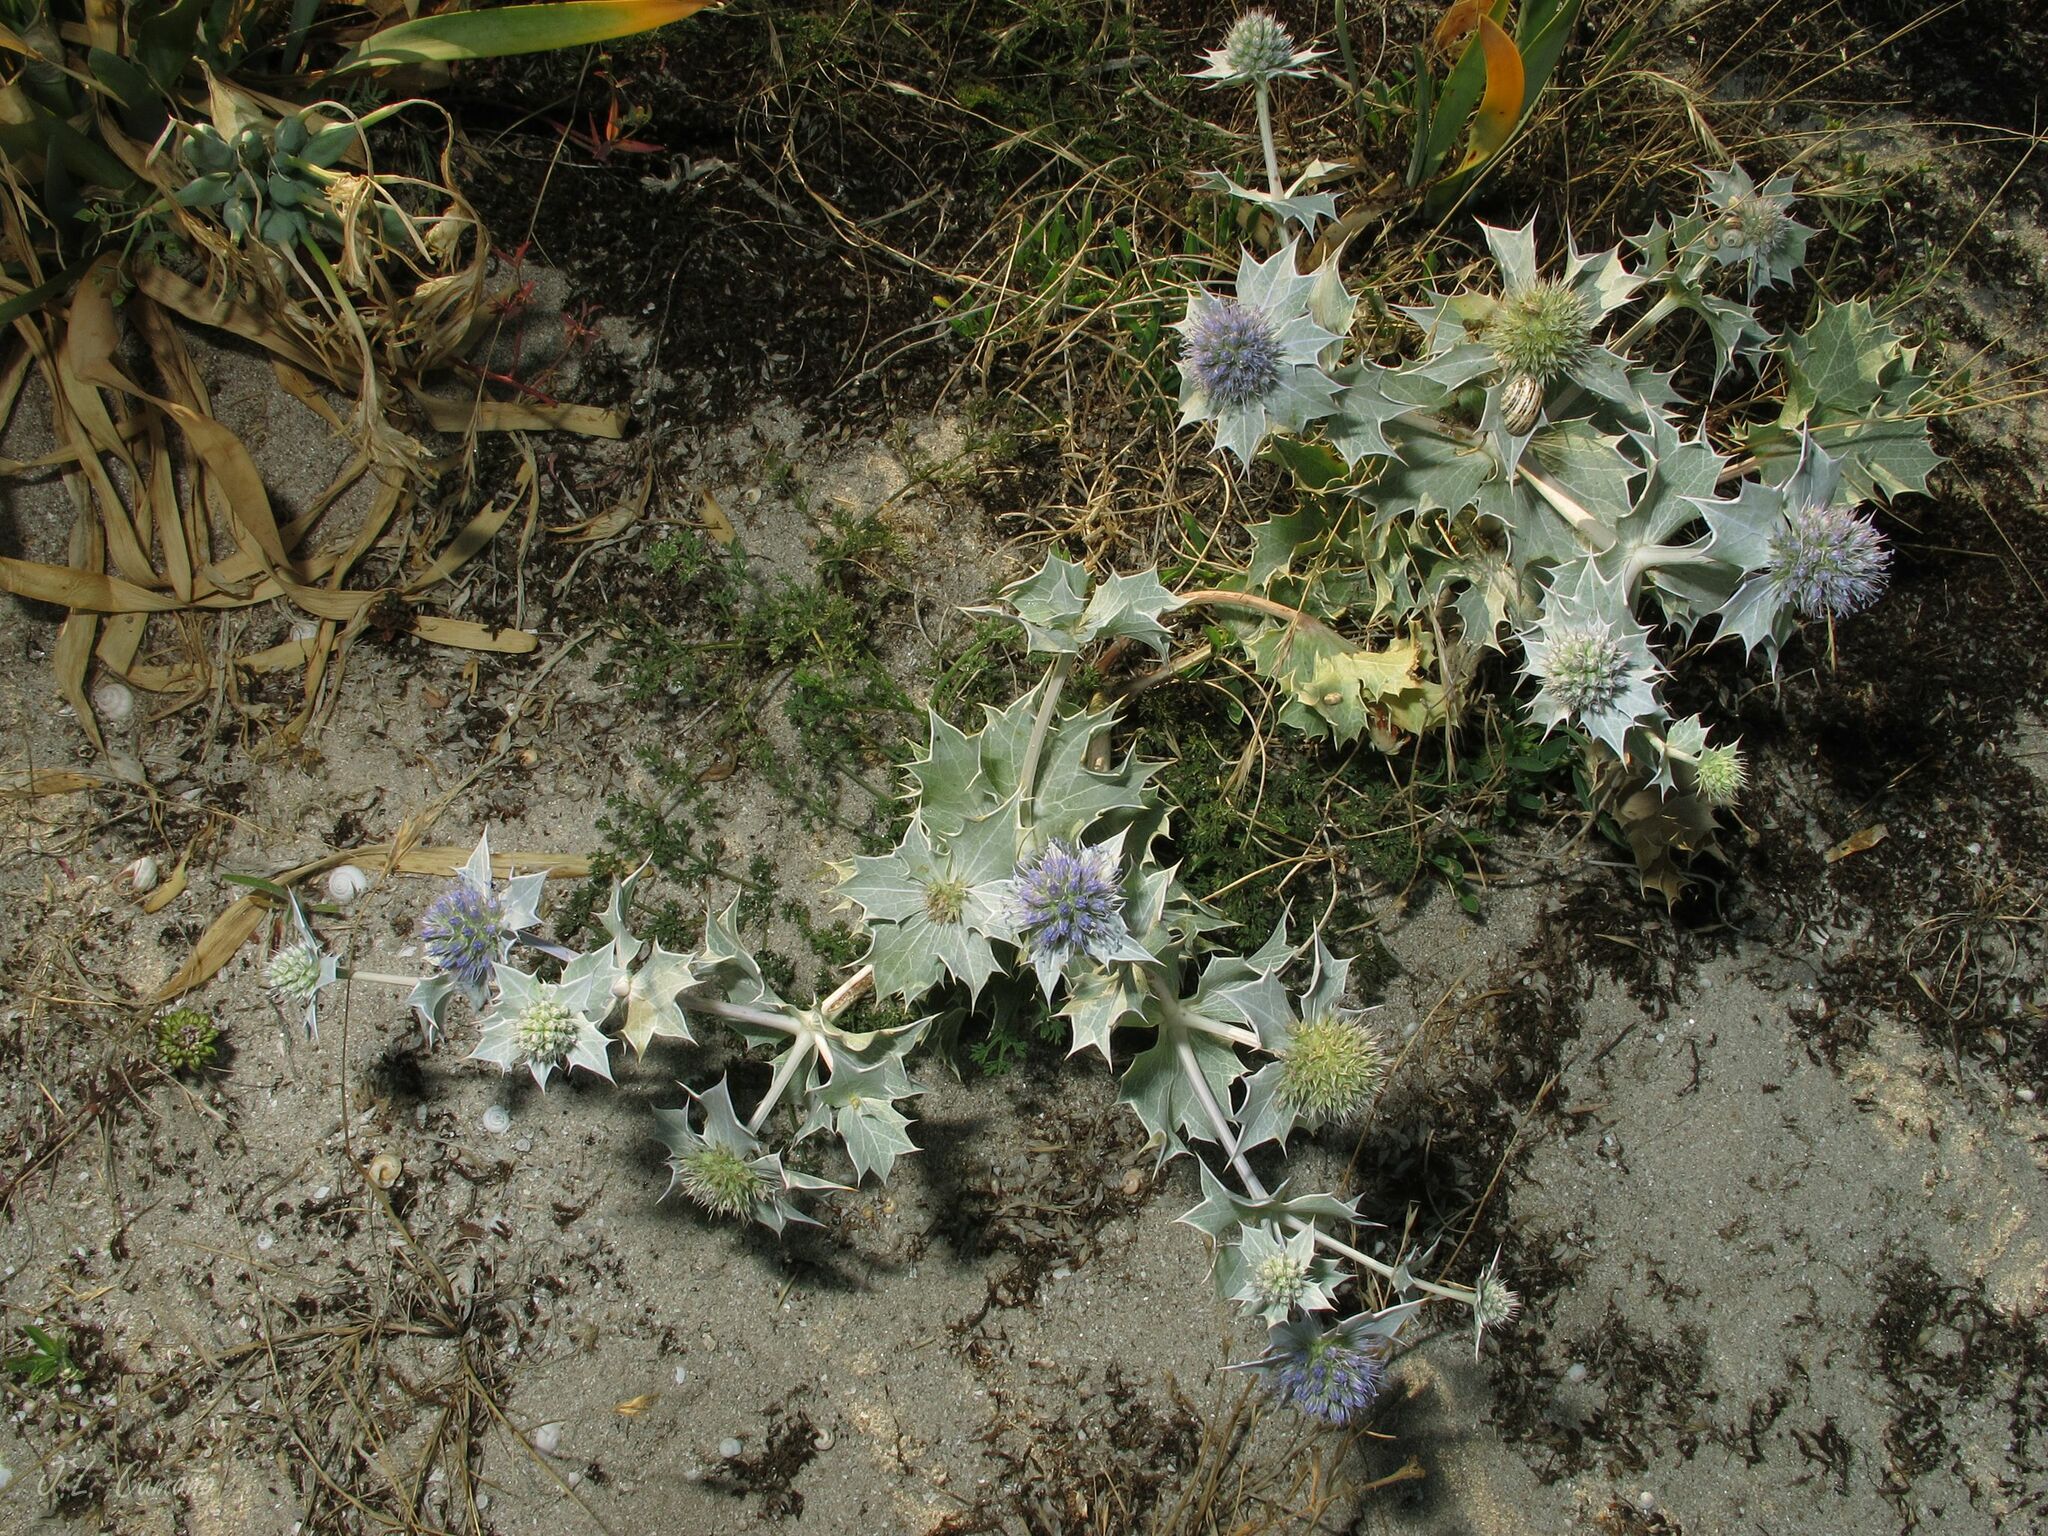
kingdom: Plantae
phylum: Tracheophyta
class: Magnoliopsida
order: Apiales
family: Apiaceae
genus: Eryngium
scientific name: Eryngium maritimum
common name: Sea-holly
